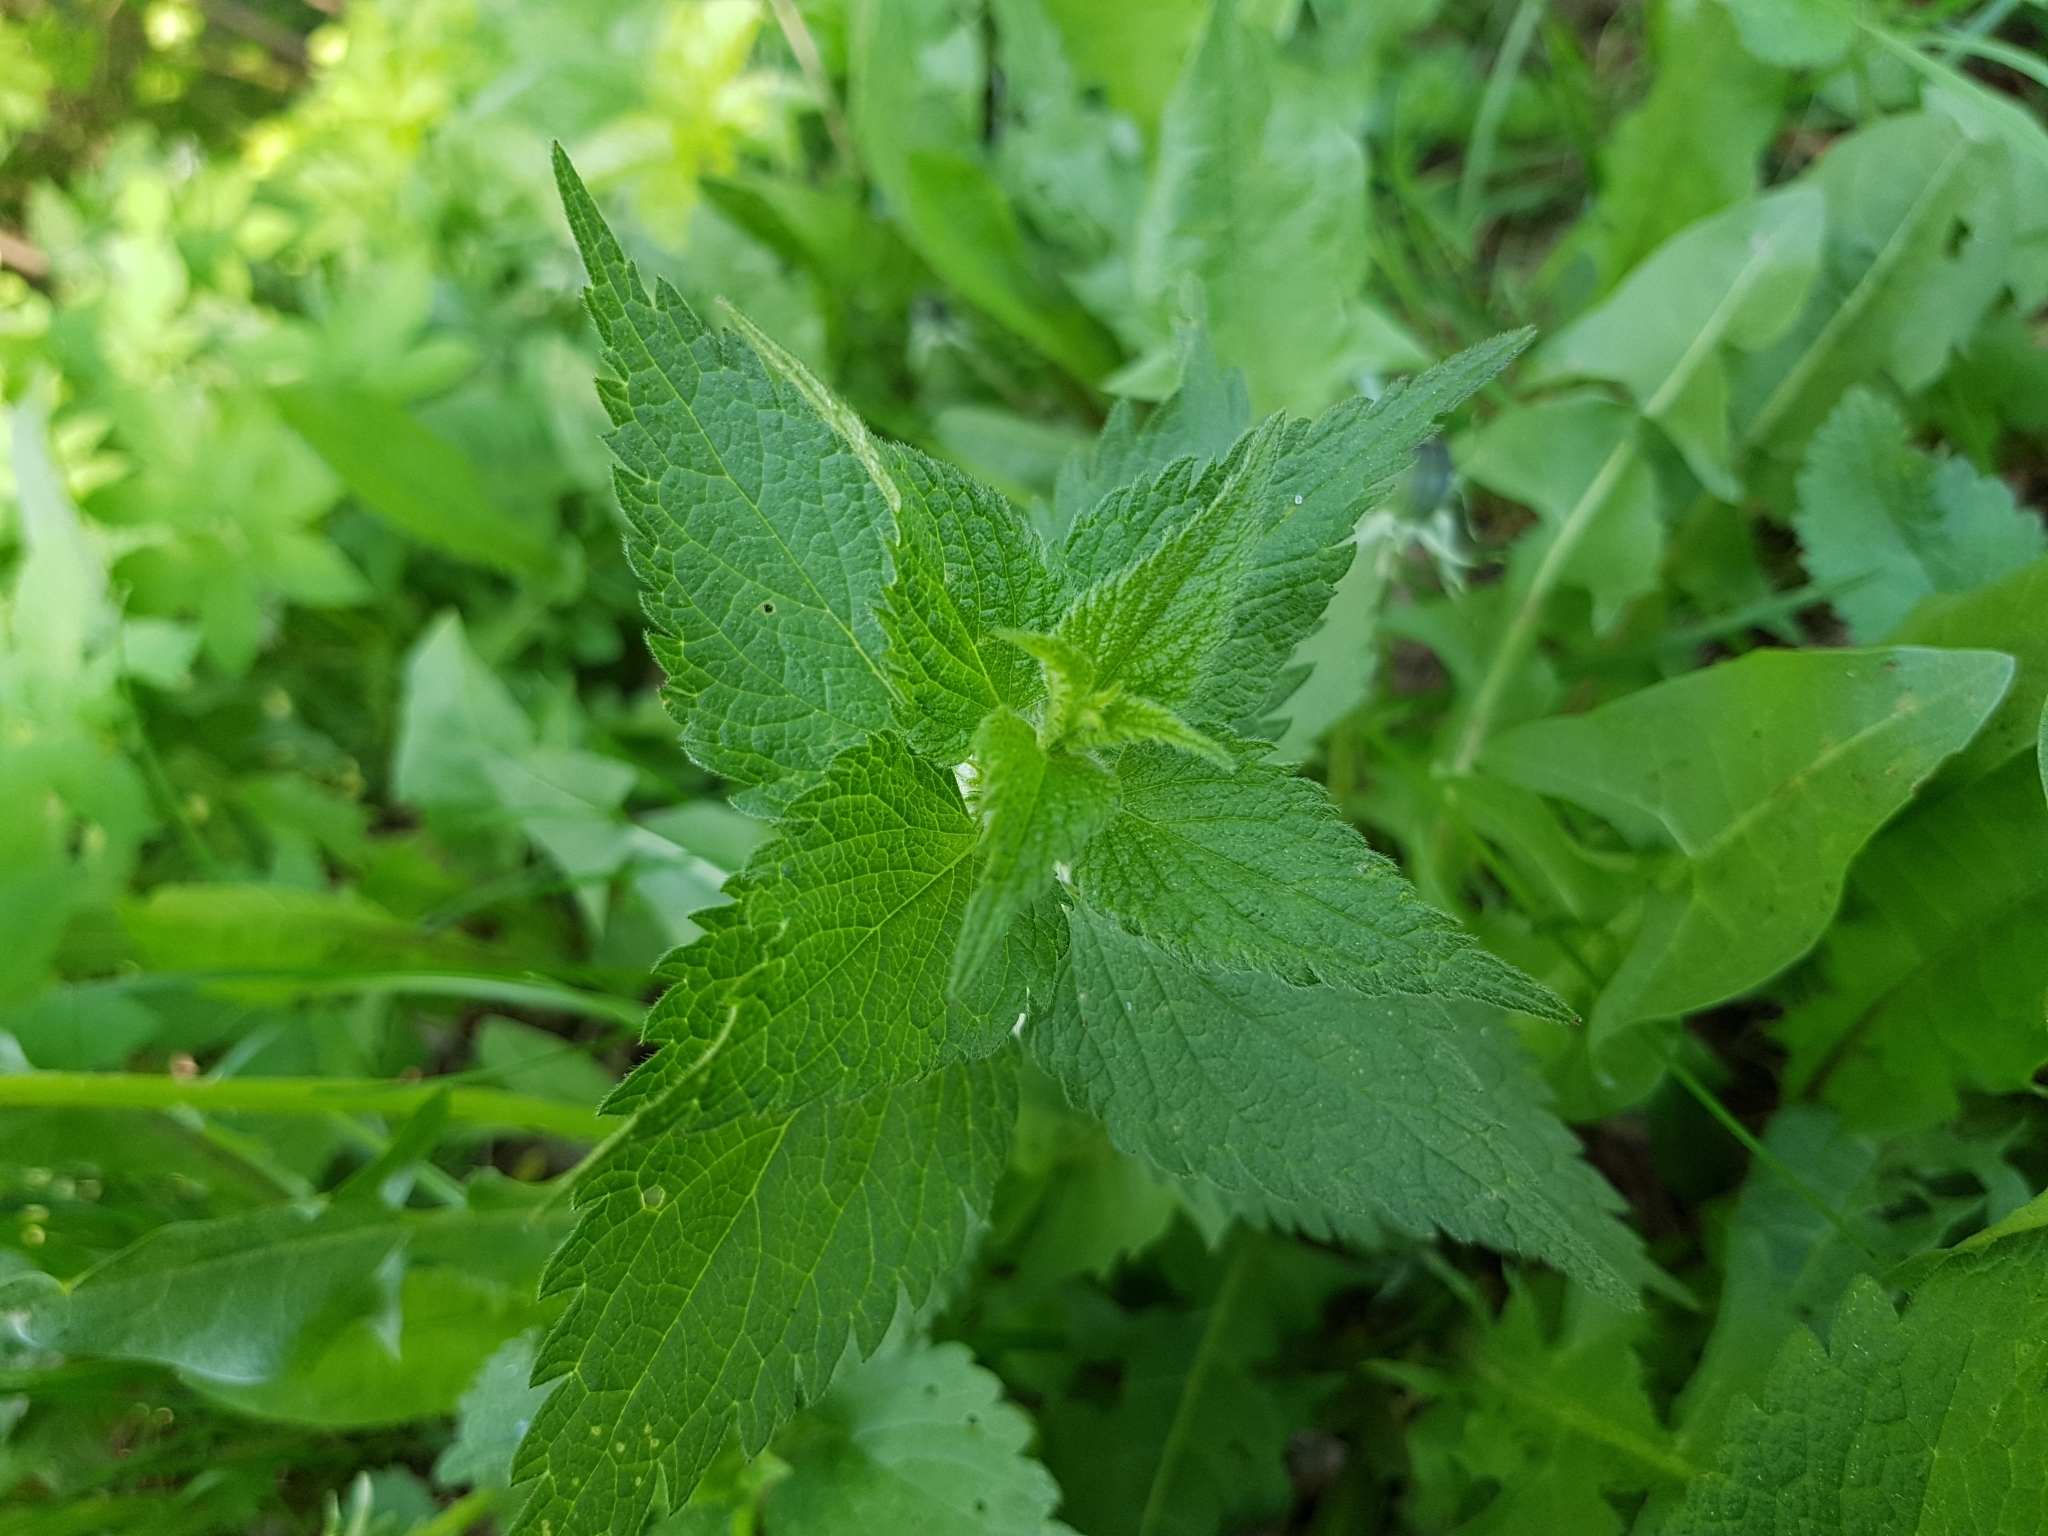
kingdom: Plantae
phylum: Tracheophyta
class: Magnoliopsida
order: Lamiales
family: Lamiaceae
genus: Lamium
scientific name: Lamium album
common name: White dead-nettle
